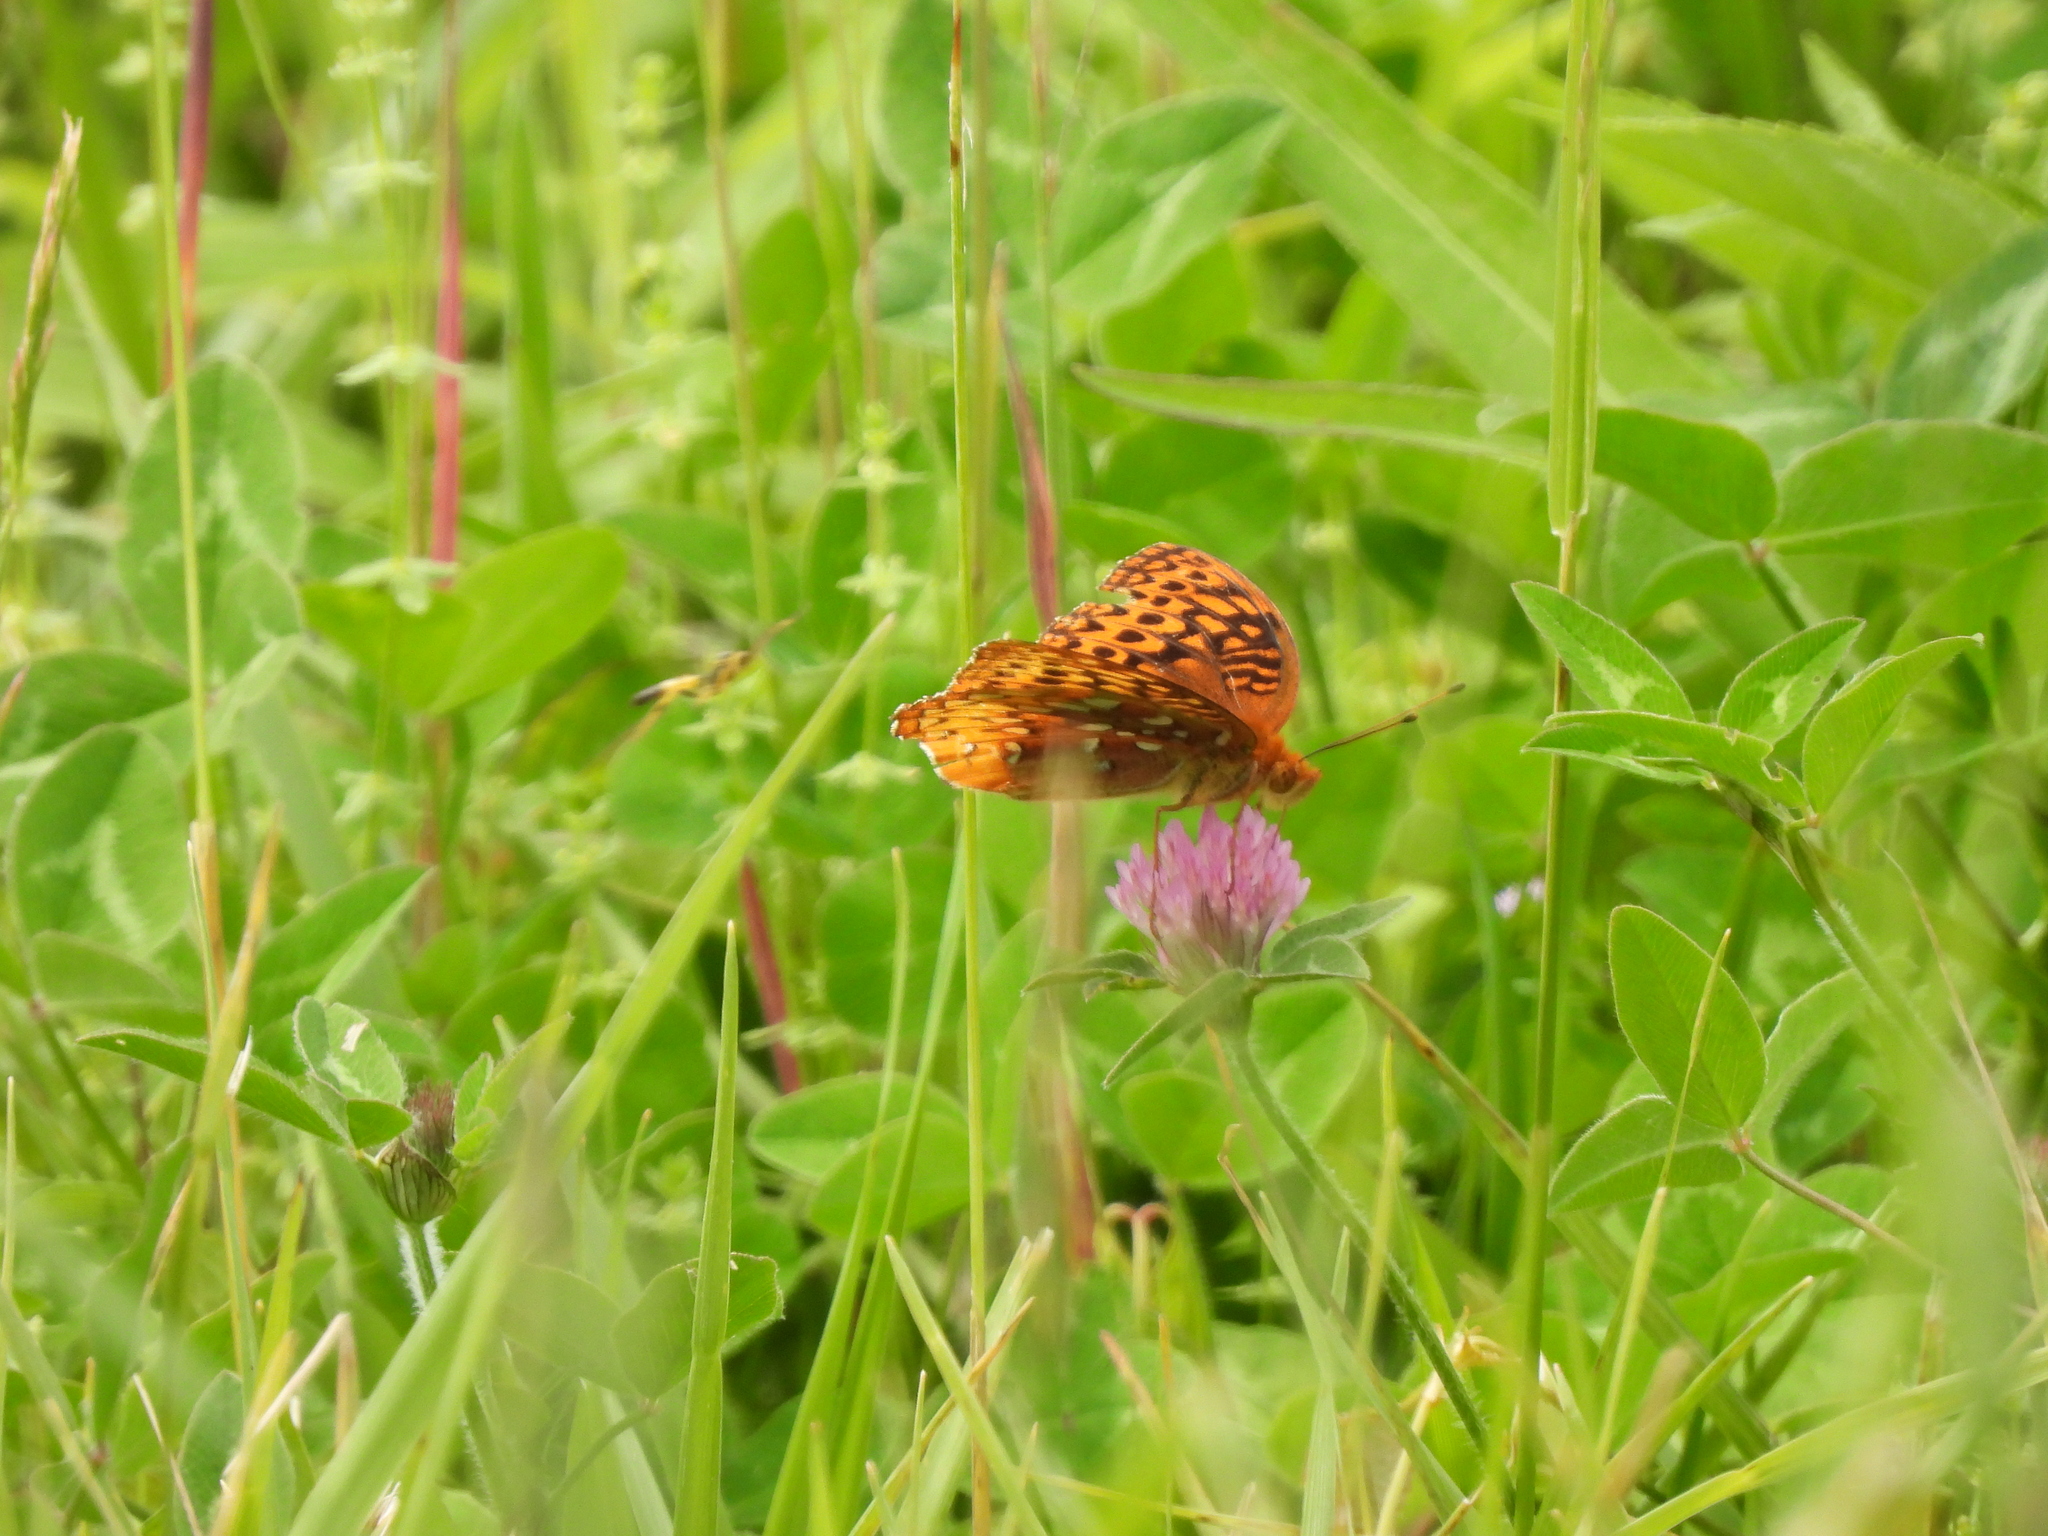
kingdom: Animalia
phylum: Arthropoda
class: Insecta
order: Lepidoptera
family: Nymphalidae
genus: Speyeria
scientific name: Speyeria cybele
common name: Great spangled fritillary
